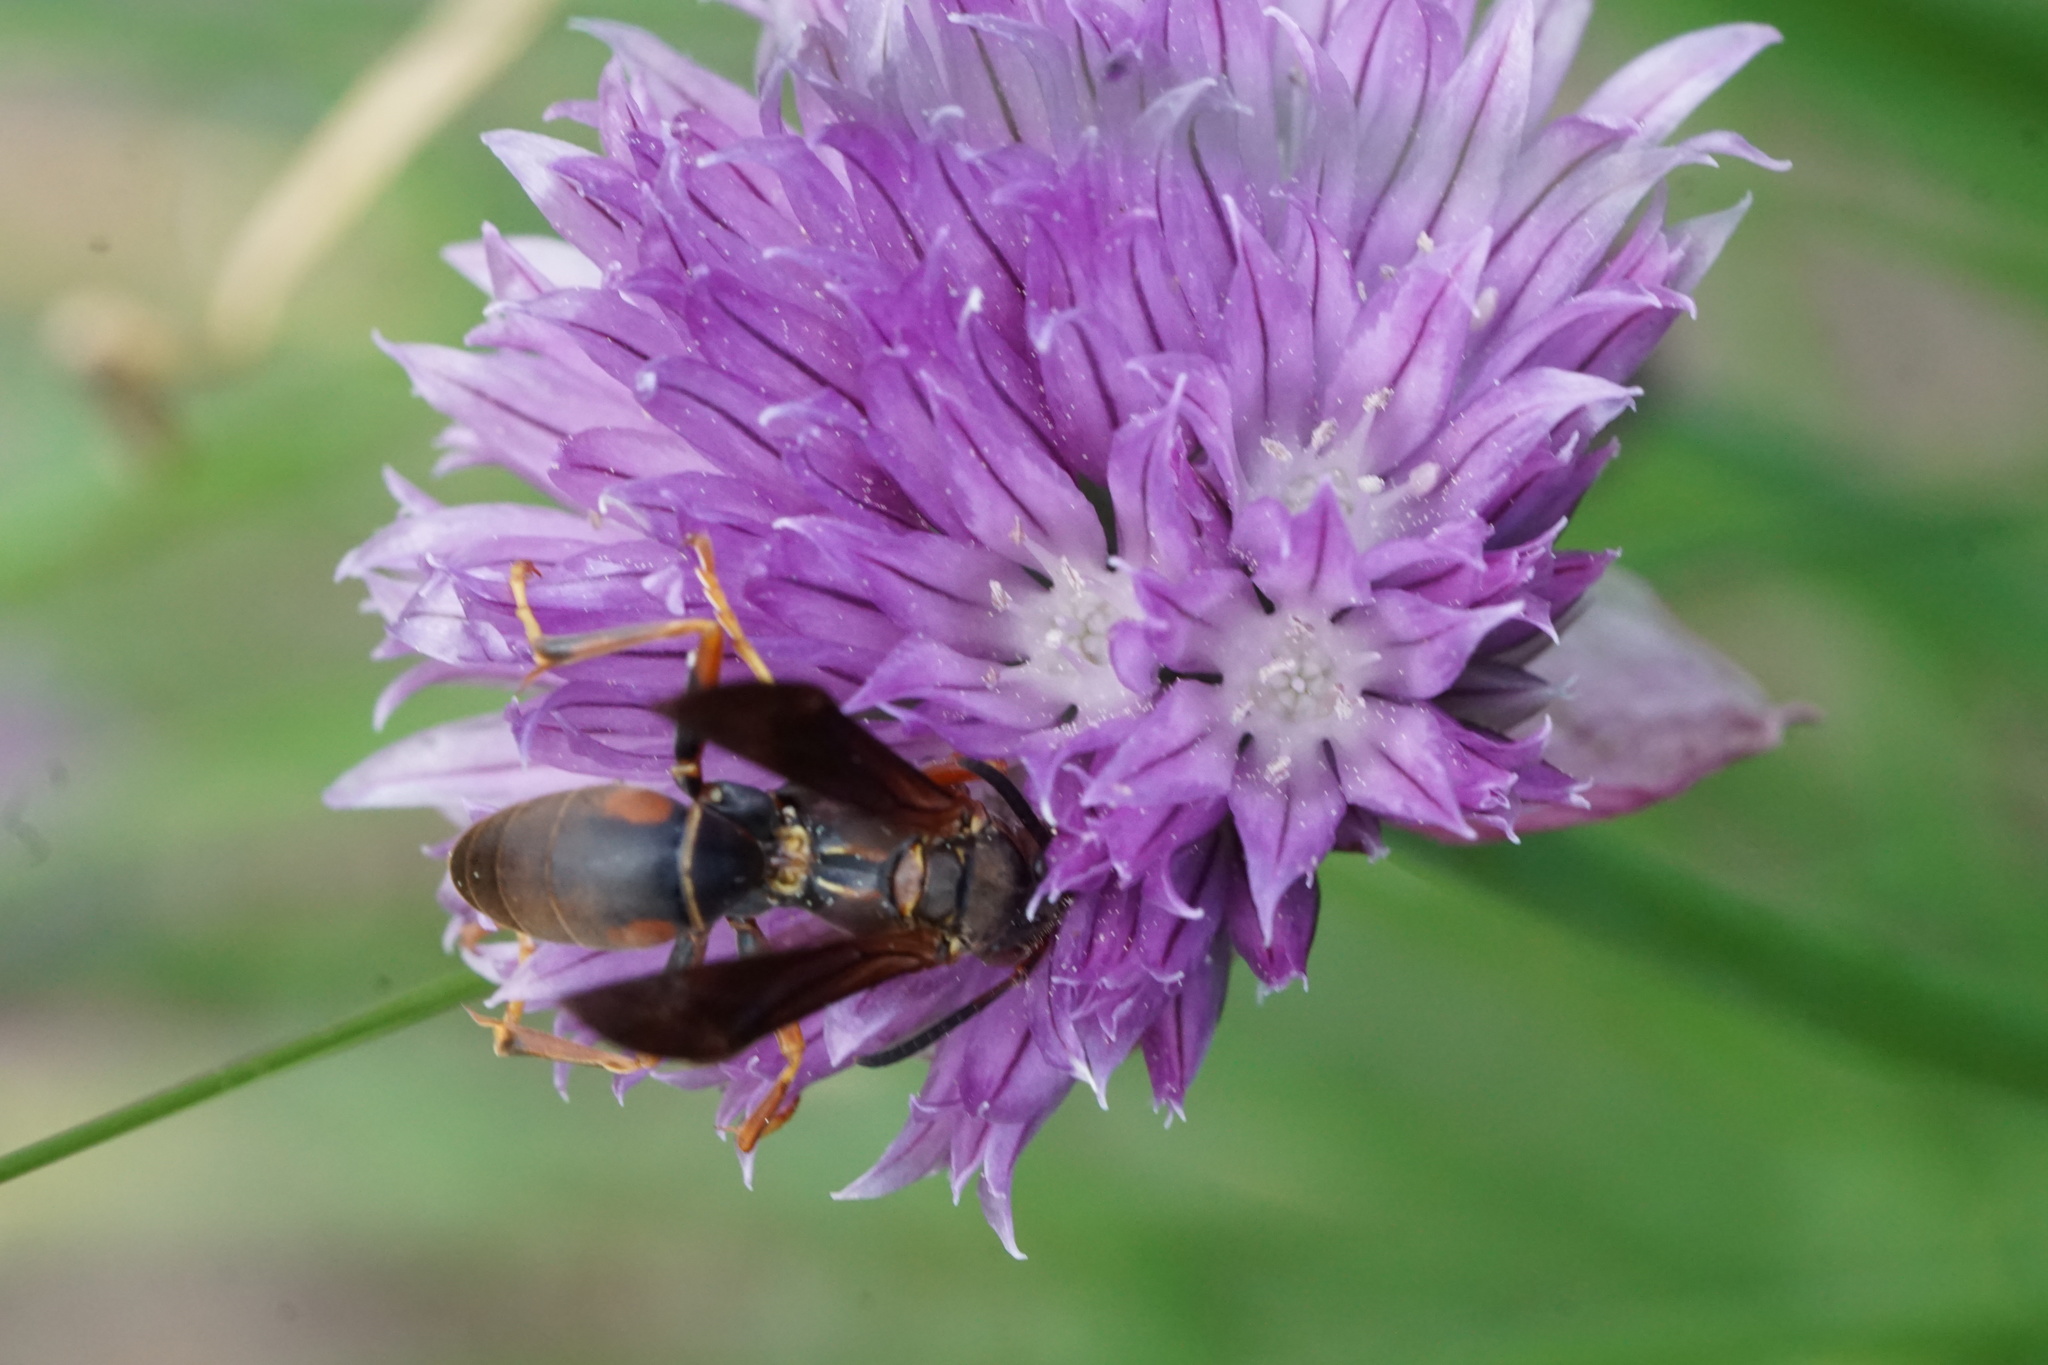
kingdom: Animalia
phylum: Arthropoda
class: Insecta
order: Hymenoptera
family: Eumenidae
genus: Polistes
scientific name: Polistes fuscatus
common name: Dark paper wasp
